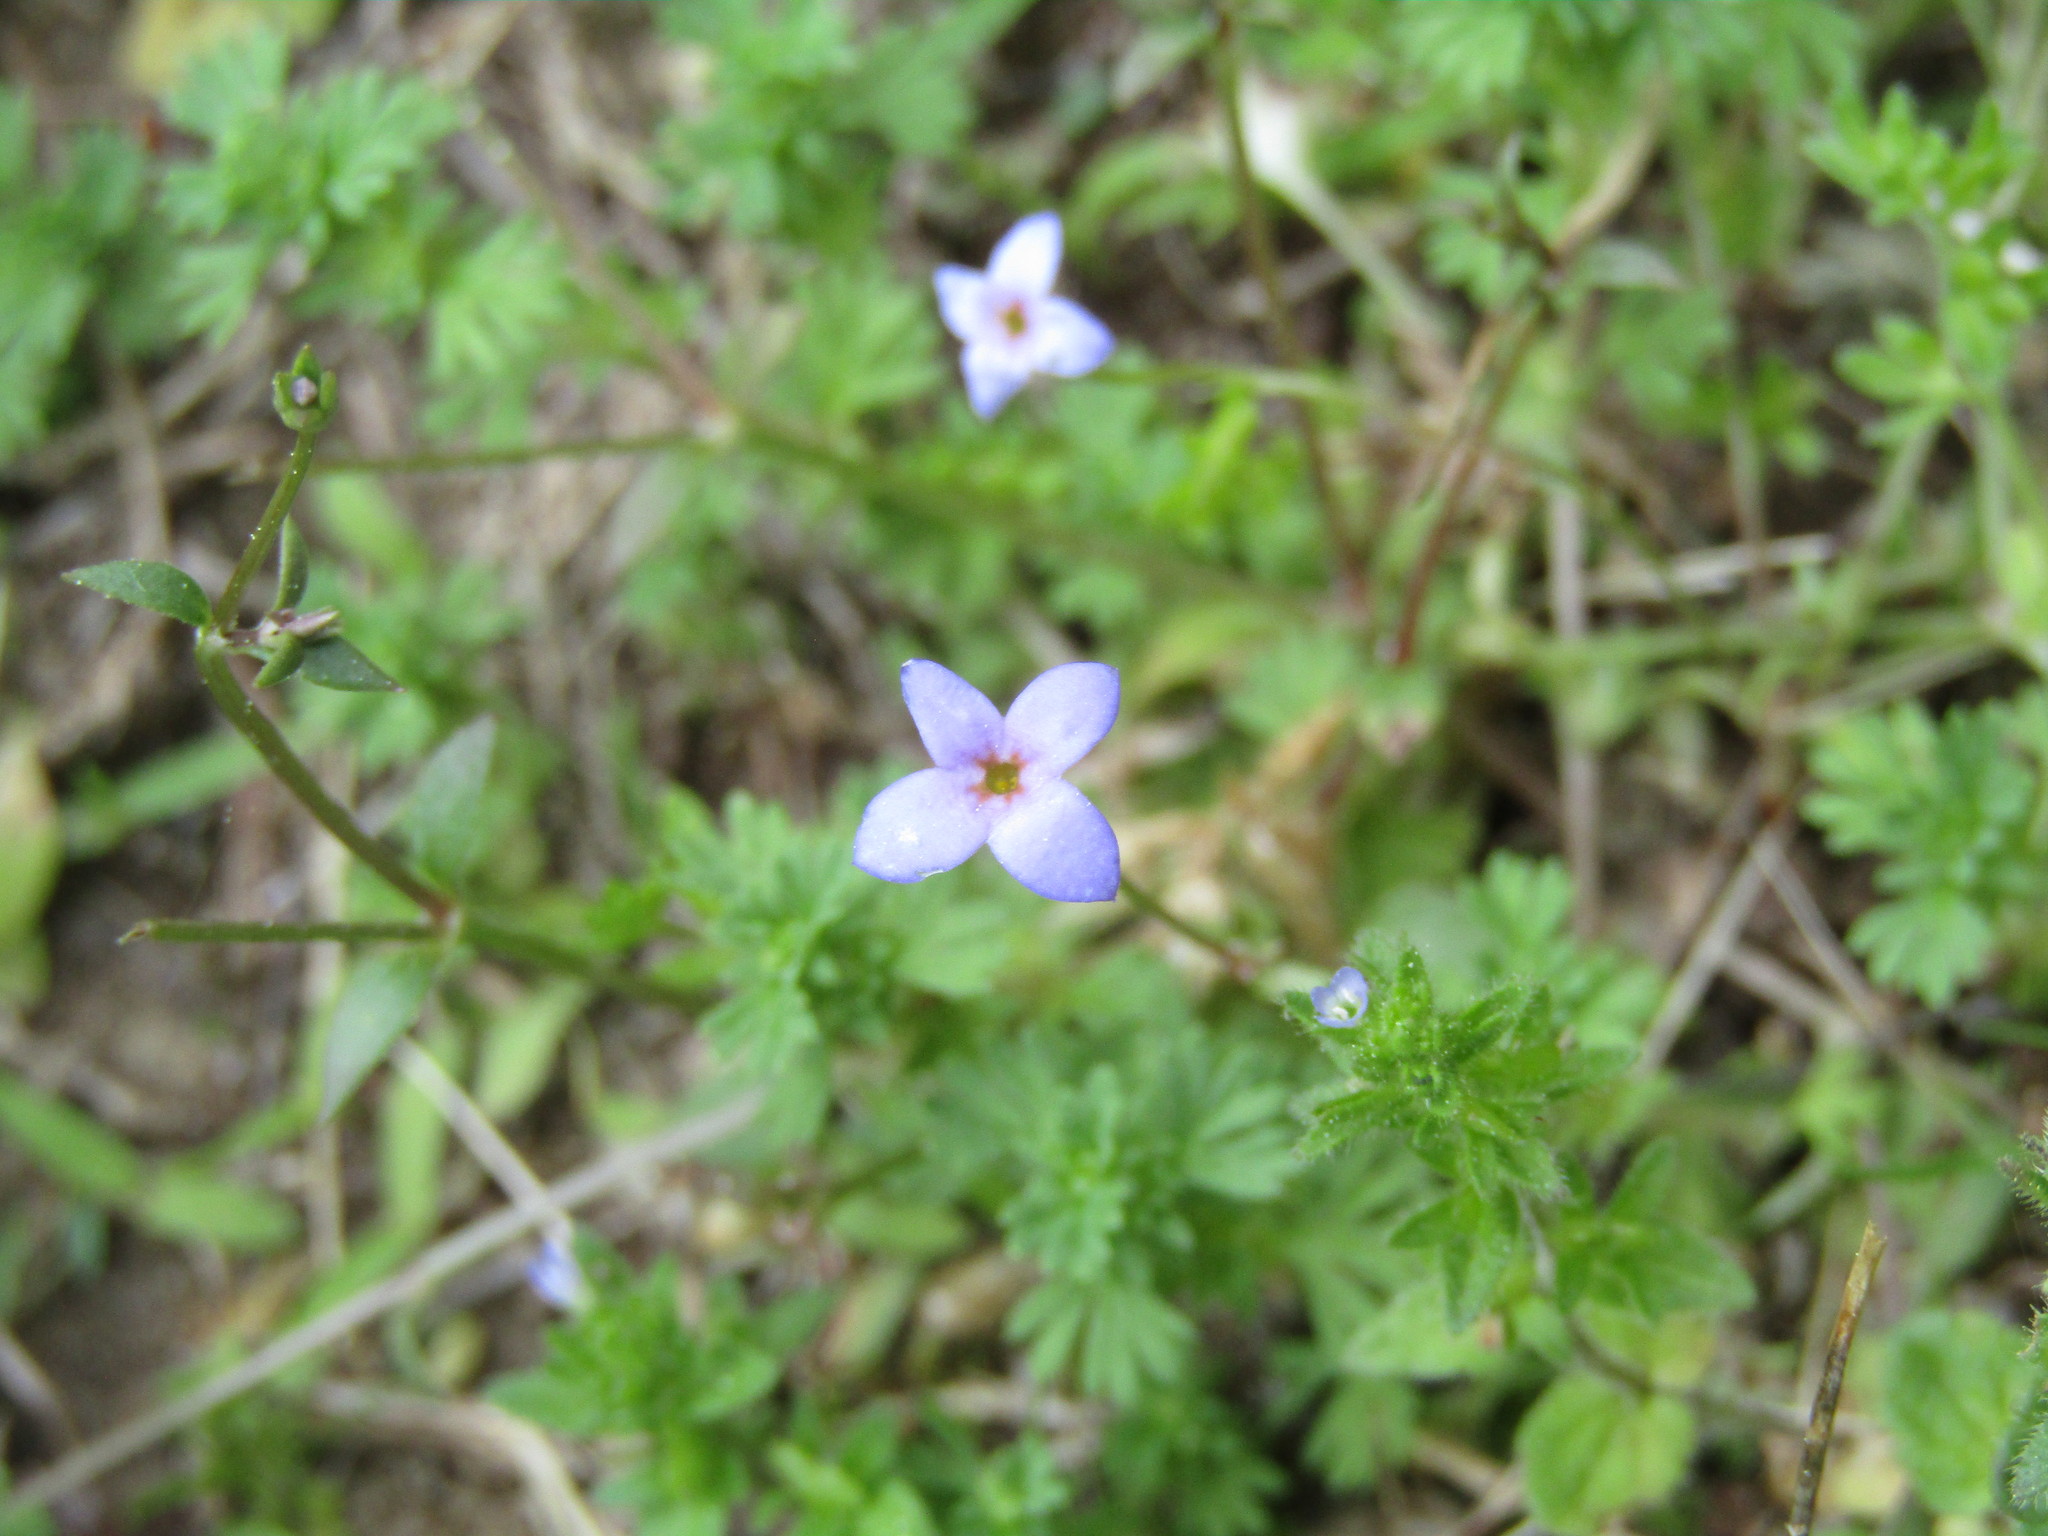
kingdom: Plantae
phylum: Tracheophyta
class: Magnoliopsida
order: Gentianales
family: Rubiaceae
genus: Houstonia
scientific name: Houstonia pusilla
